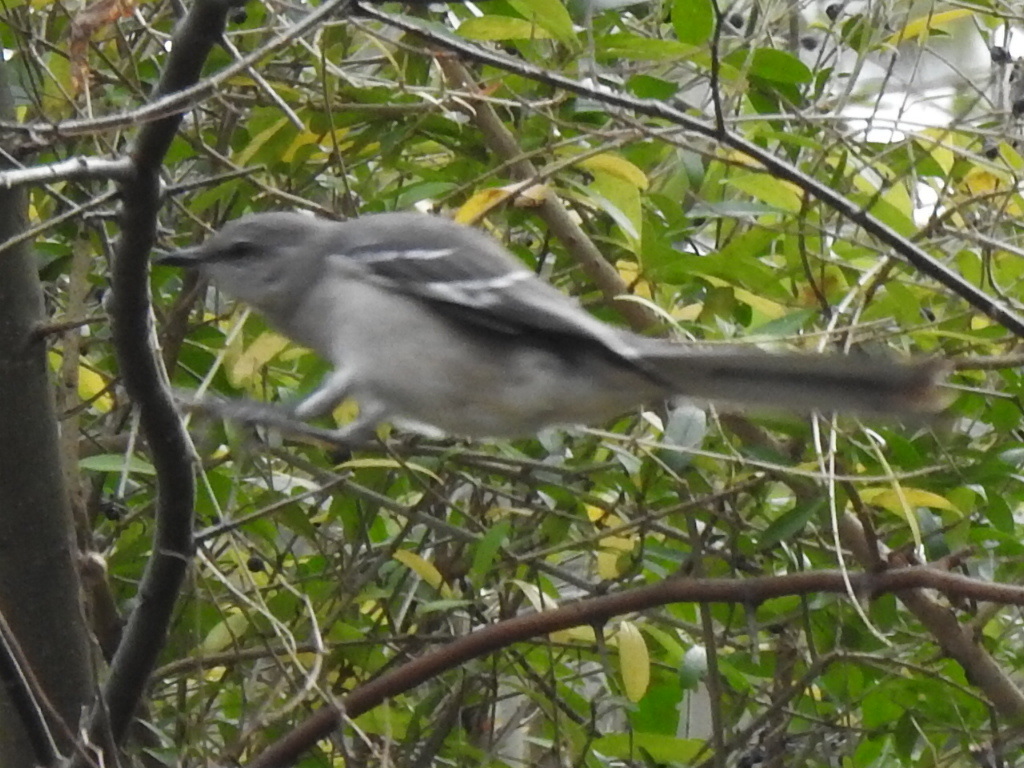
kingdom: Animalia
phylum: Chordata
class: Aves
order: Passeriformes
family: Mimidae
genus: Mimus
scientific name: Mimus polyglottos
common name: Northern mockingbird
